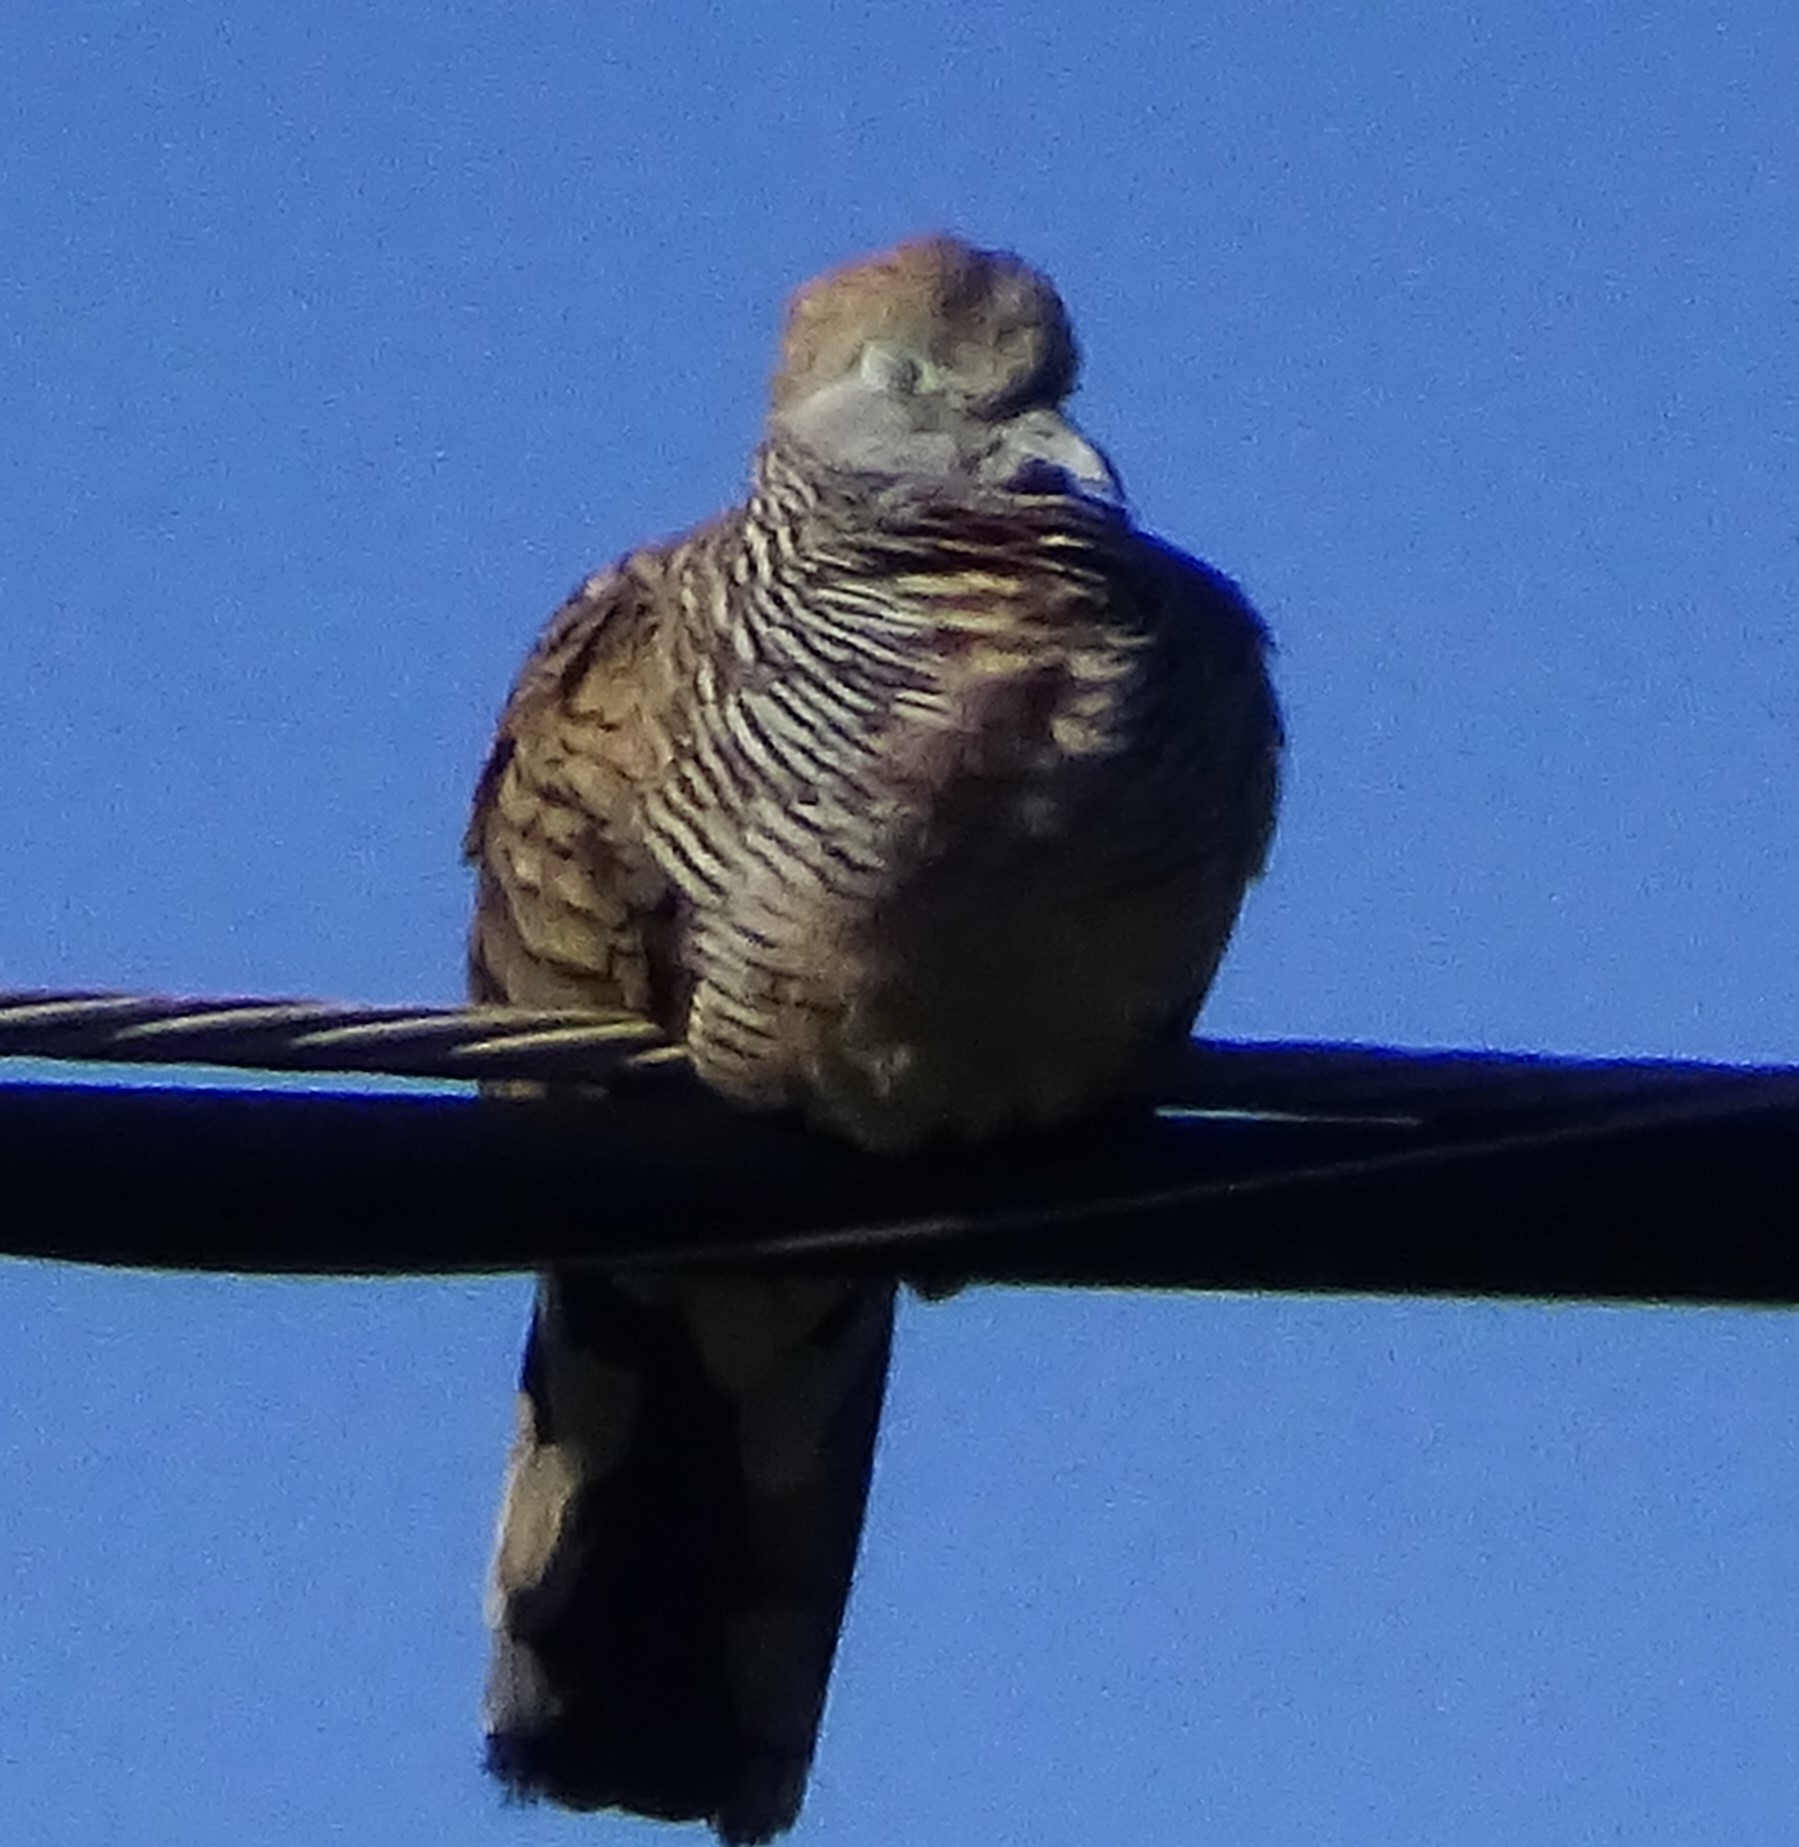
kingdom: Animalia
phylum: Chordata
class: Aves
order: Columbiformes
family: Columbidae
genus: Geopelia
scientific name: Geopelia striata
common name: Zebra dove
